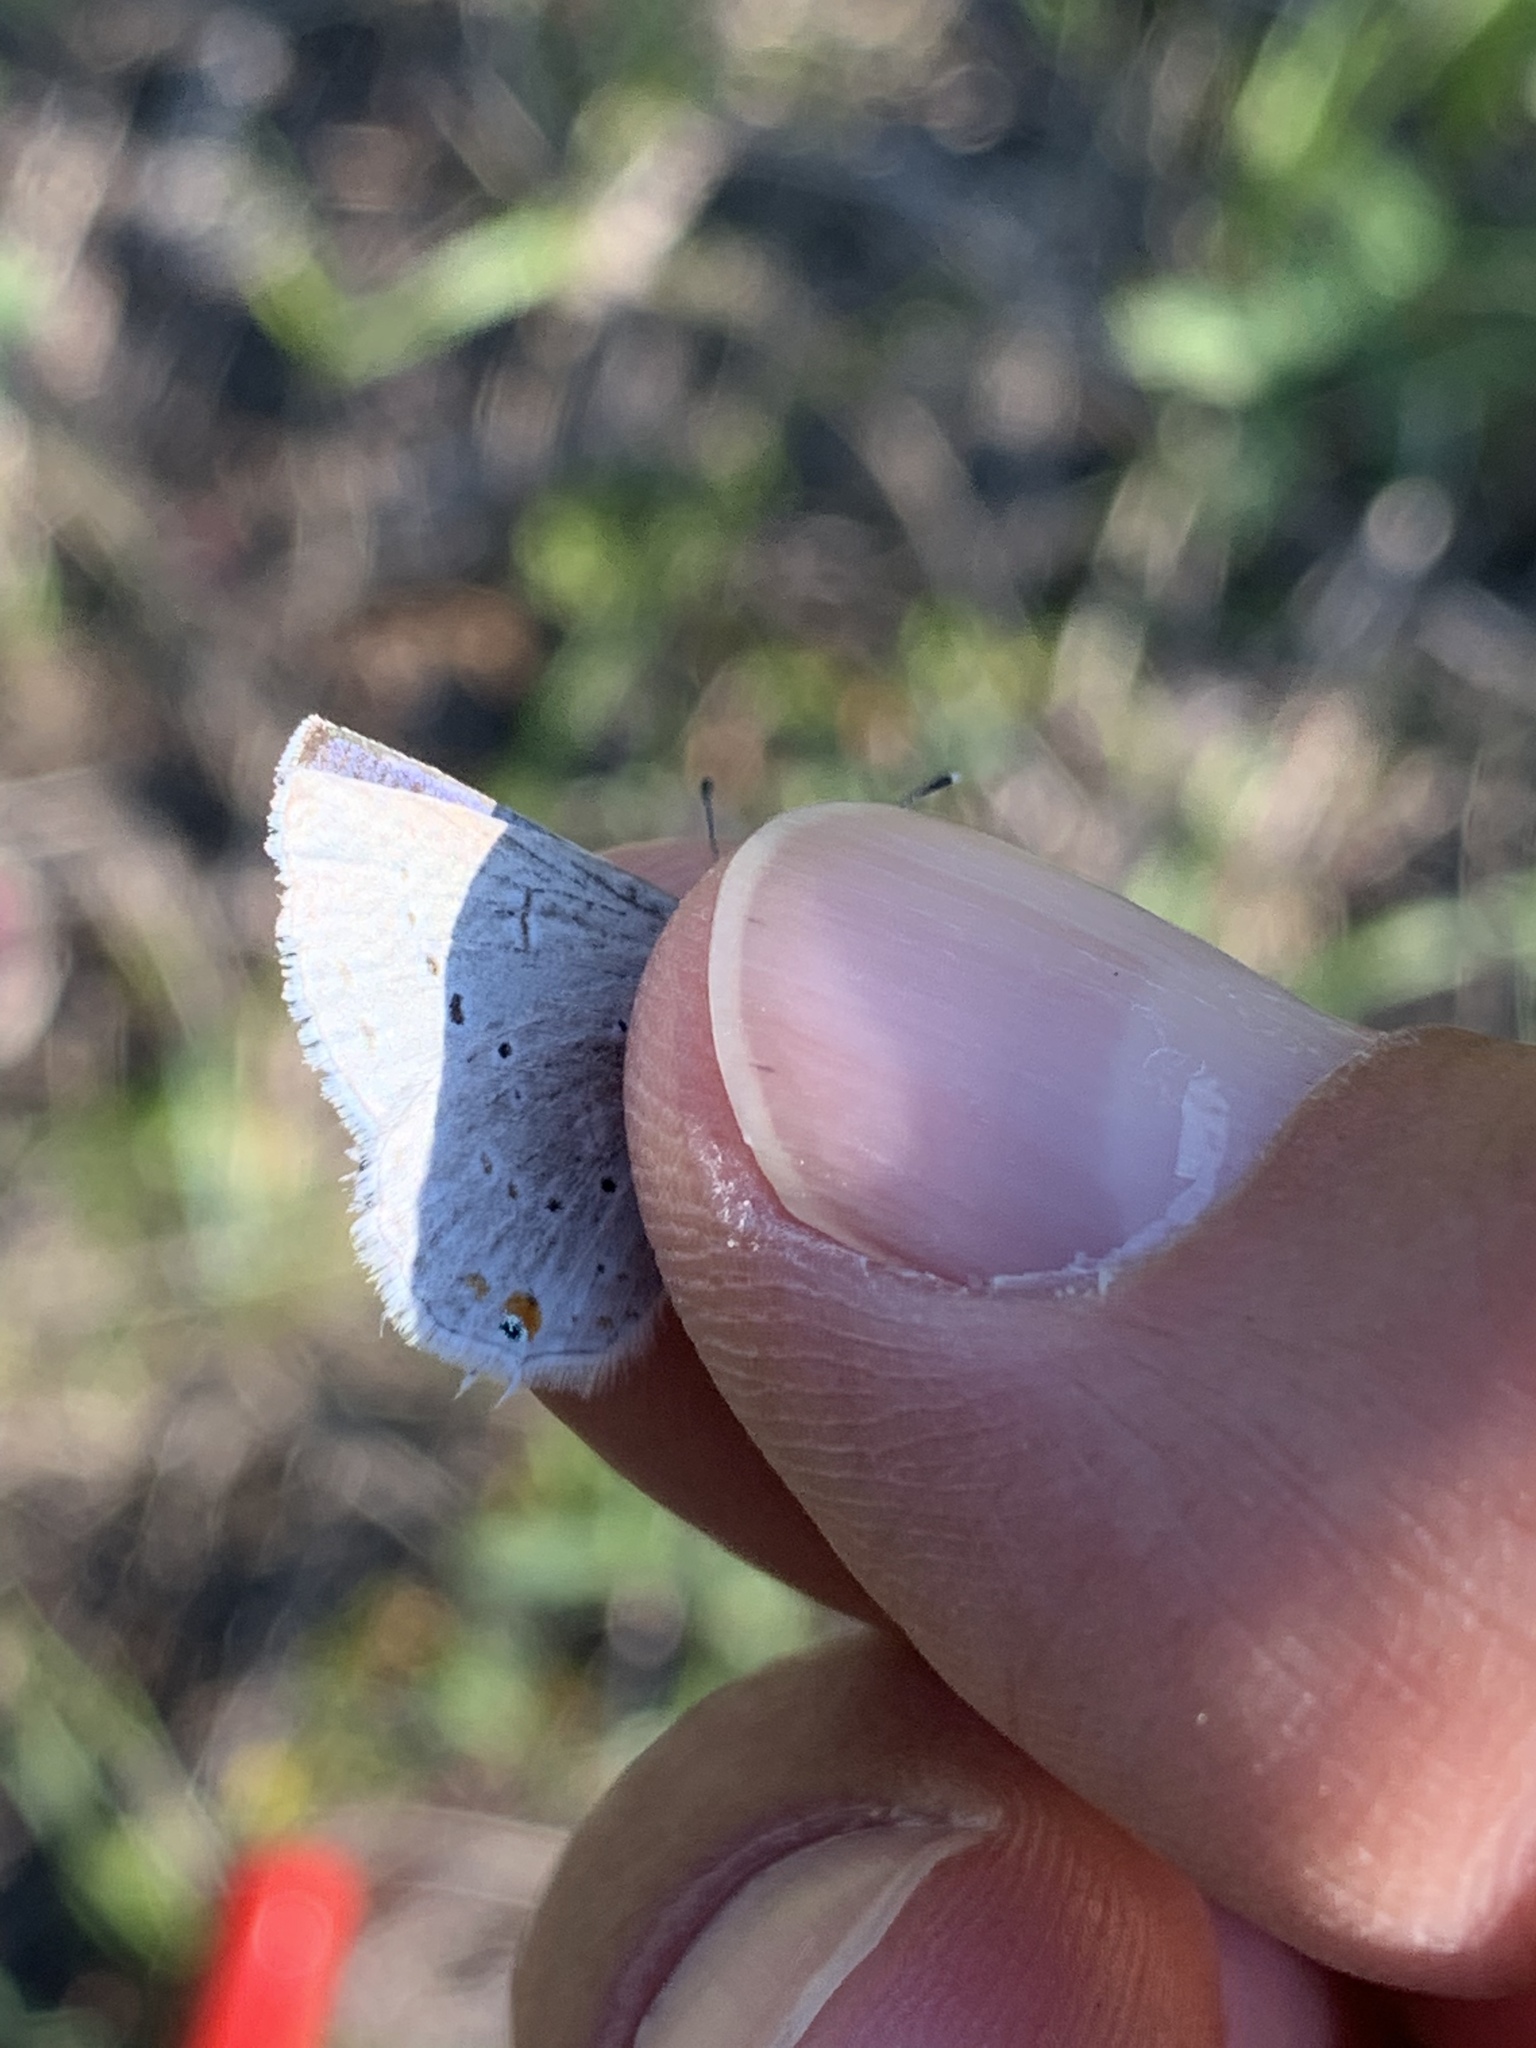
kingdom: Animalia
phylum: Arthropoda
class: Insecta
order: Lepidoptera
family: Lycaenidae
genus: Elkalyce
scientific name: Elkalyce amyntula
